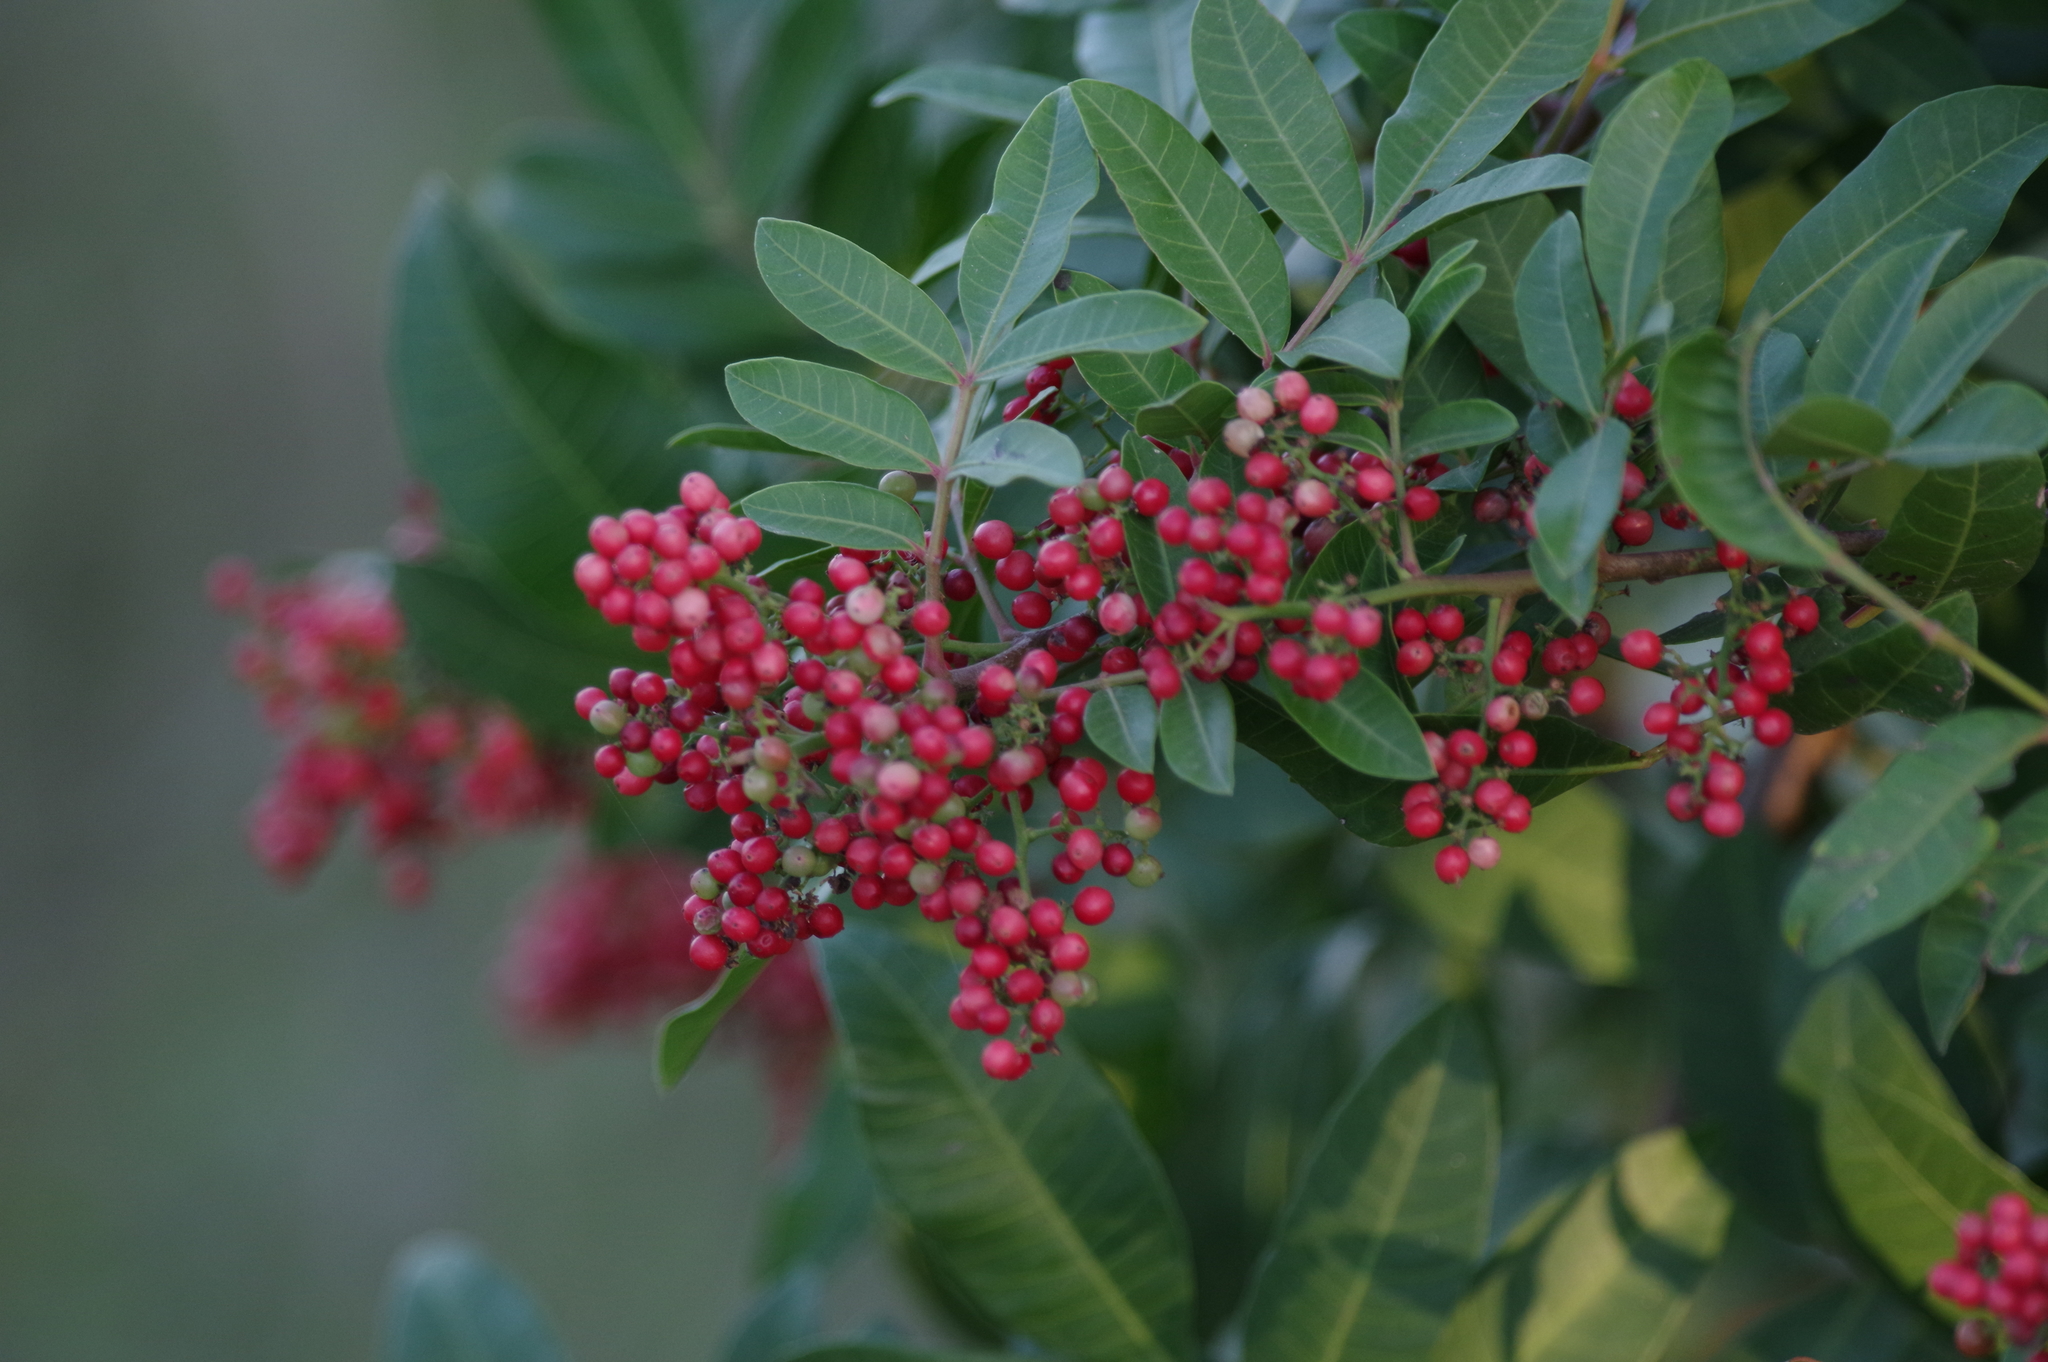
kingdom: Plantae
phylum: Tracheophyta
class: Magnoliopsida
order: Sapindales
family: Anacardiaceae
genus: Schinus
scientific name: Schinus terebinthifolia
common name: Brazilian peppertree
